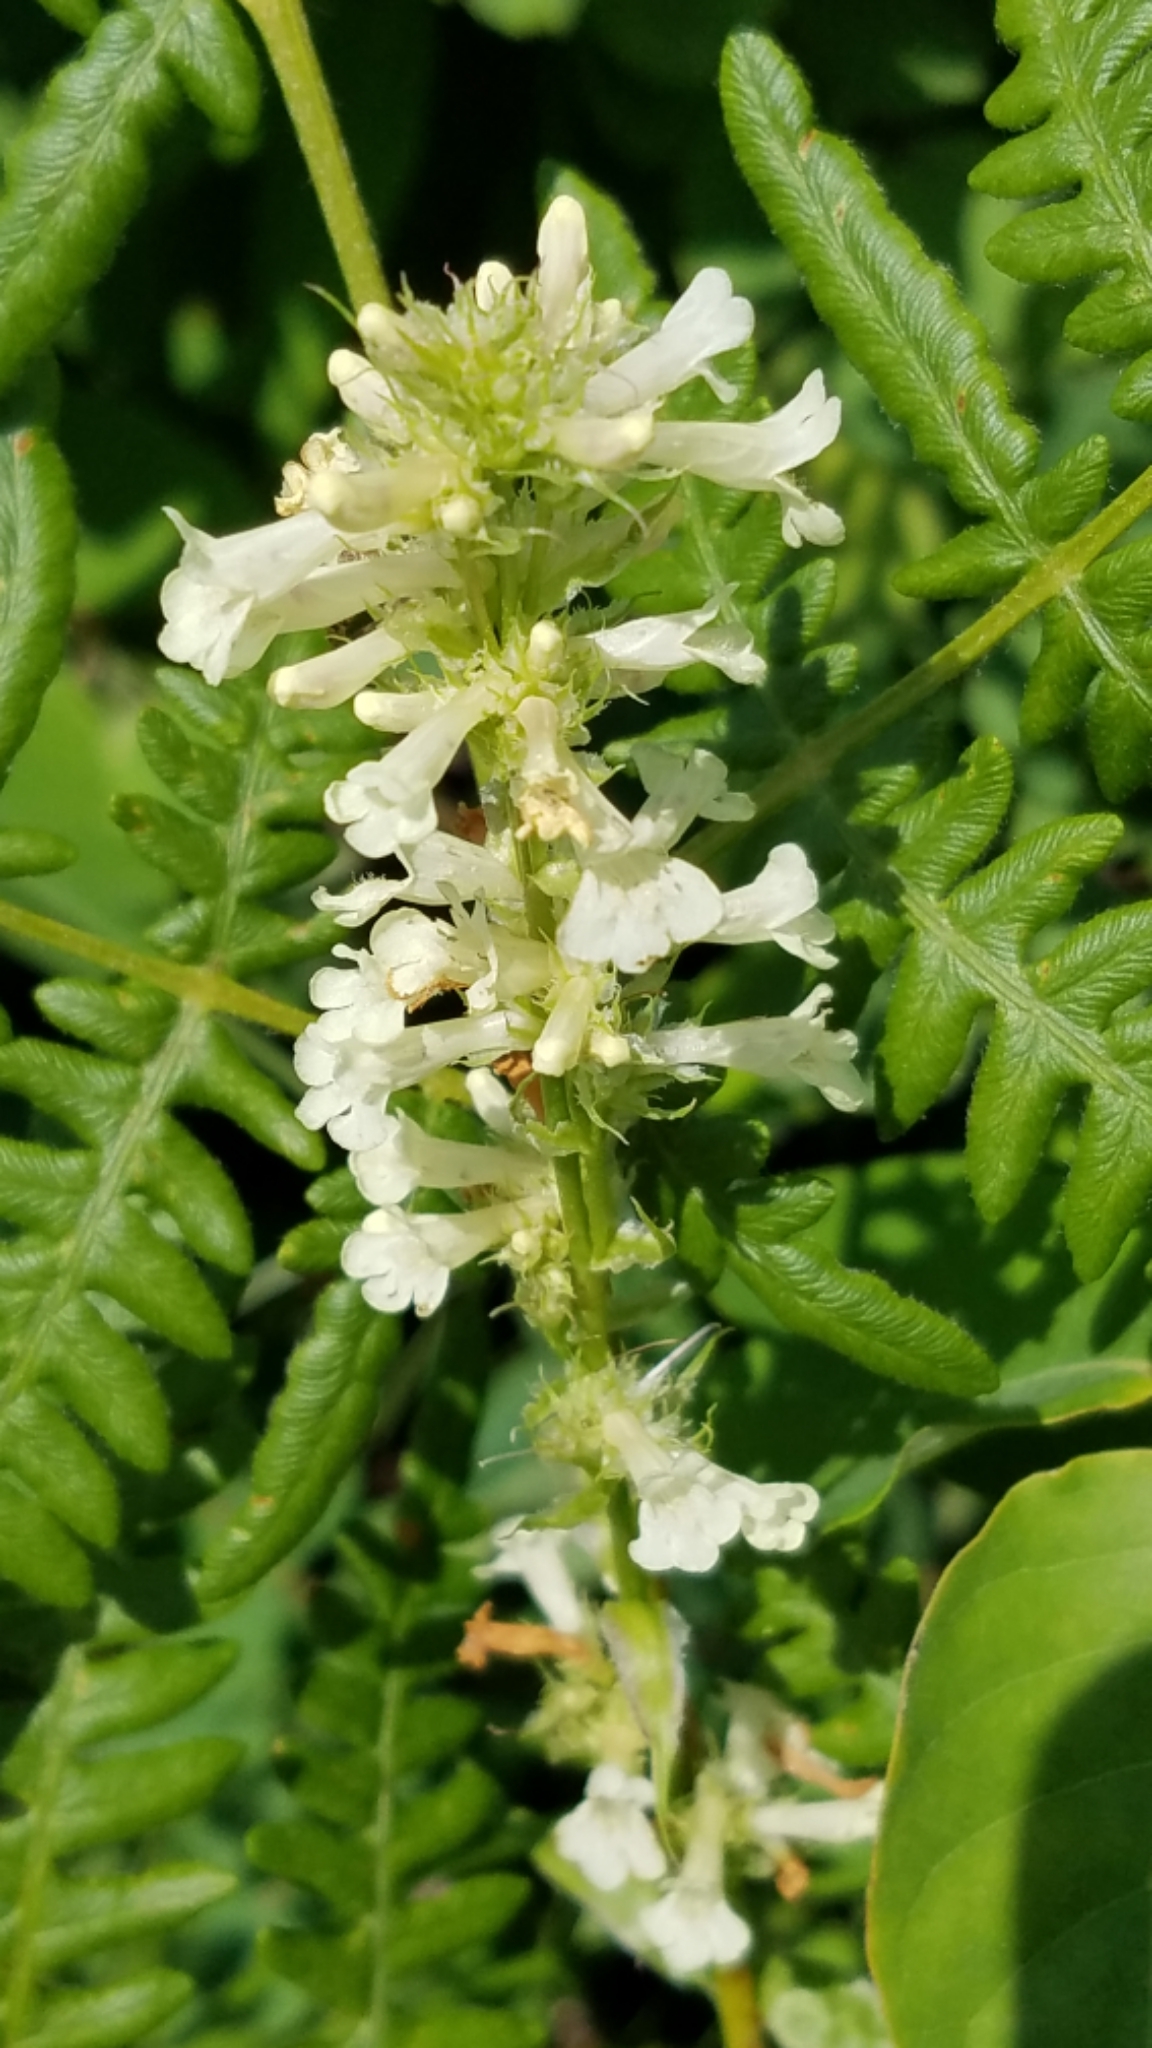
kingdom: Plantae
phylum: Tracheophyta
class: Magnoliopsida
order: Lamiales
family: Plantaginaceae
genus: Penstemon
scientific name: Penstemon confertus
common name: Lesser yellow beardtongue
